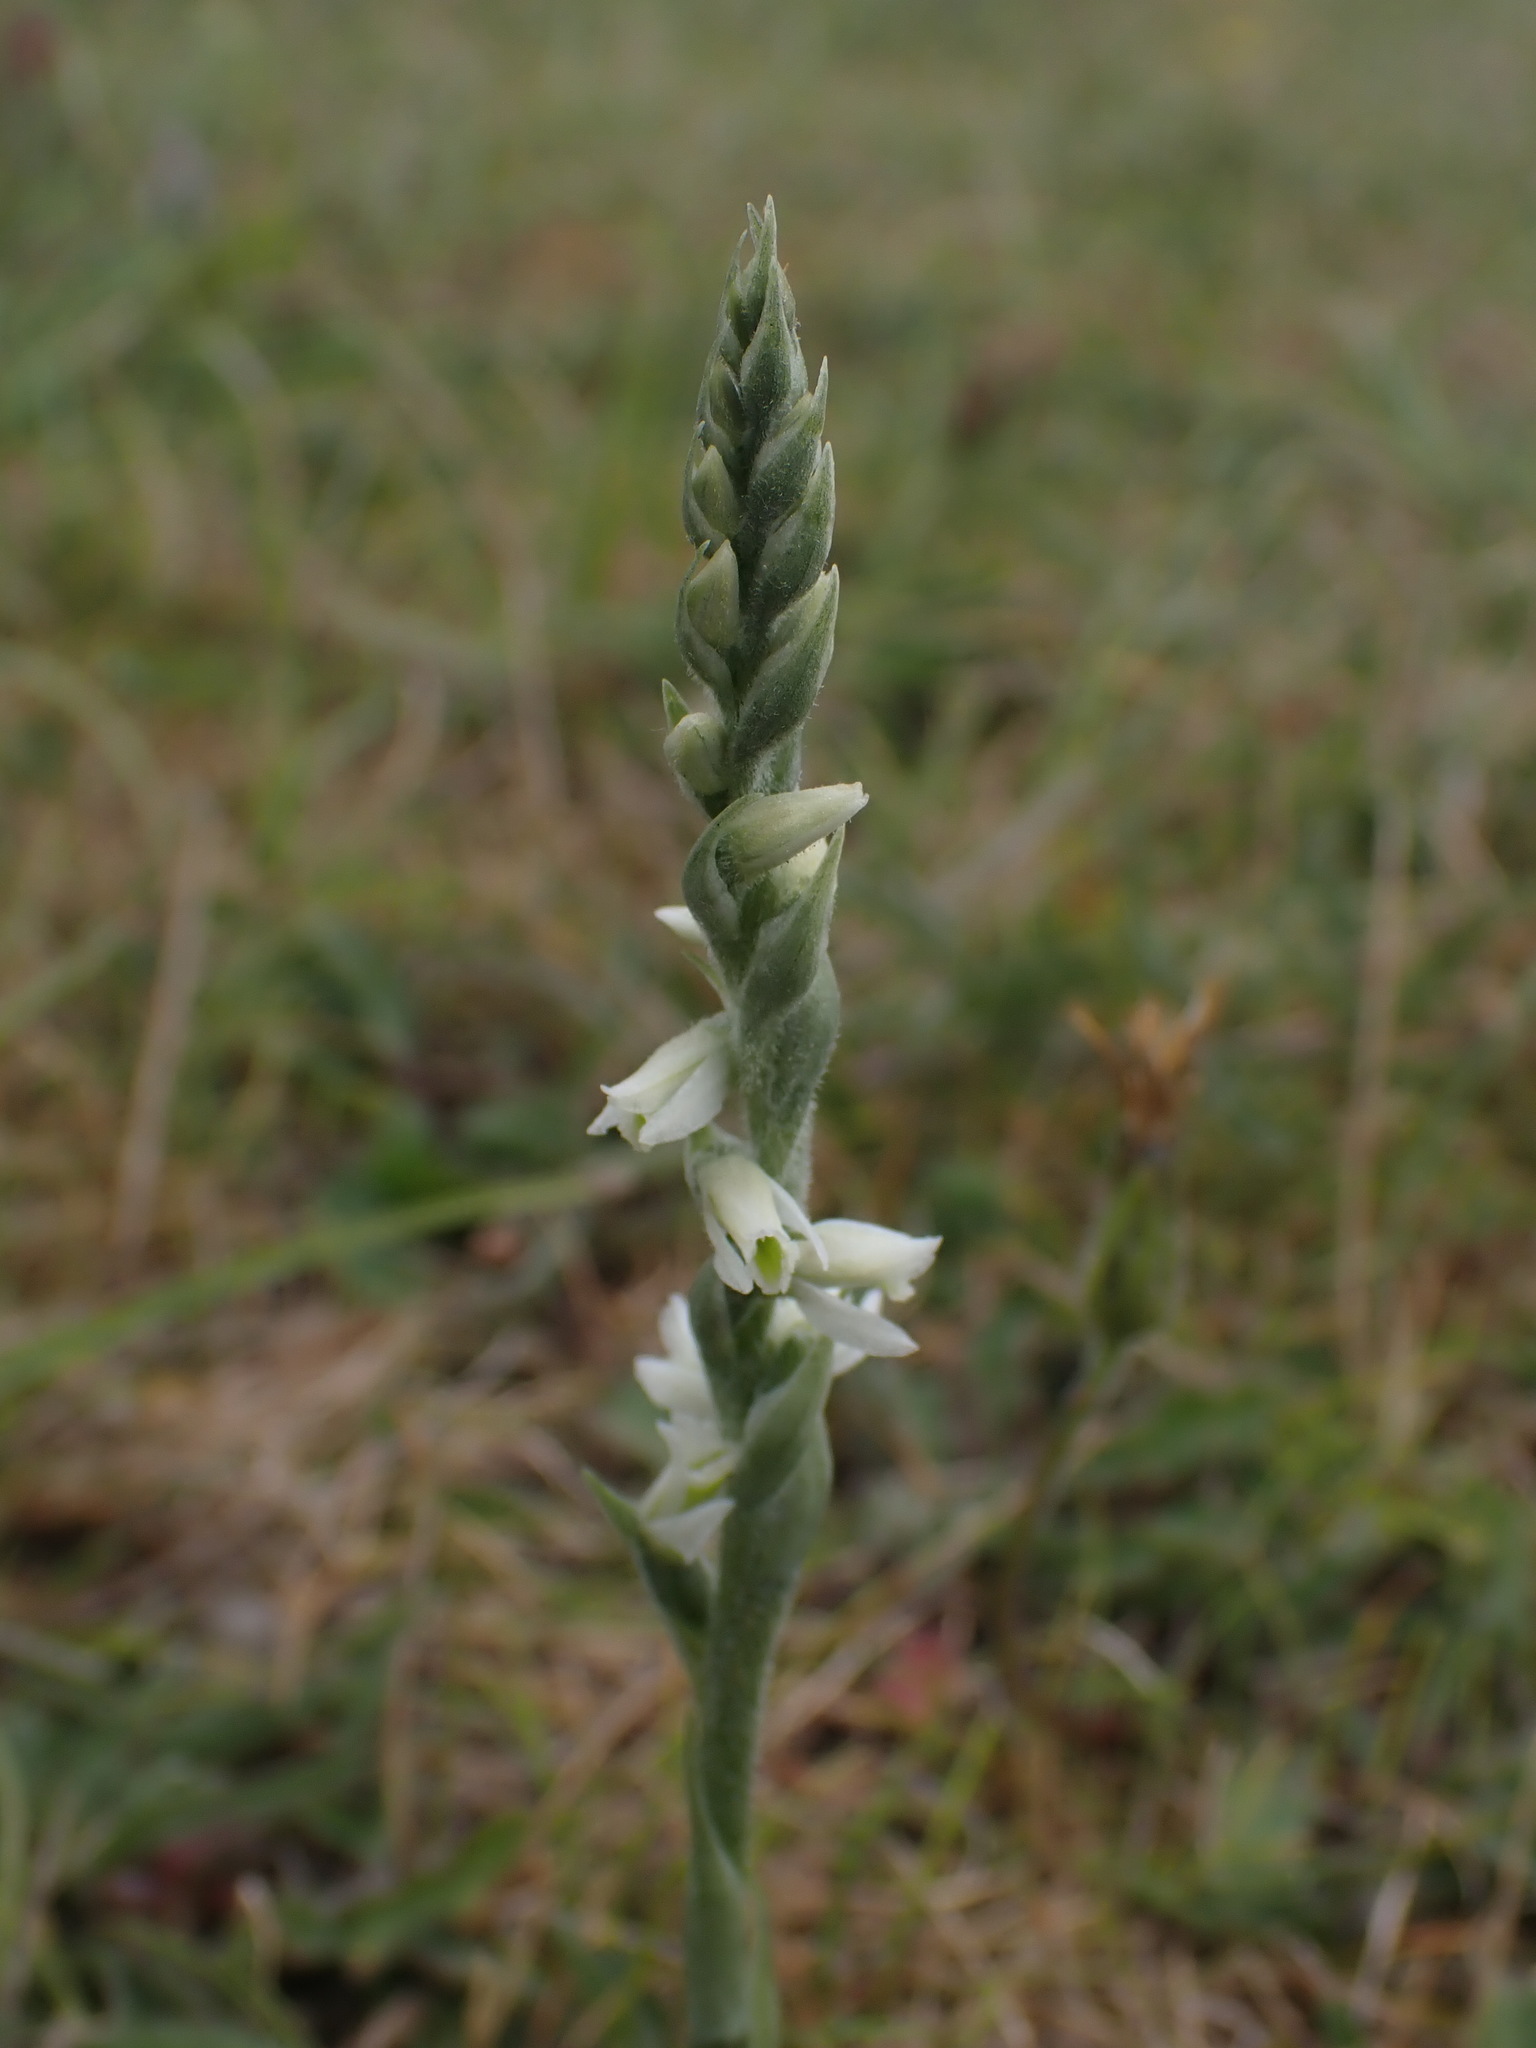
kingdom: Plantae
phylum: Tracheophyta
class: Liliopsida
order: Asparagales
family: Orchidaceae
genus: Spiranthes
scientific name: Spiranthes spiralis
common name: Autumn lady's-tresses
